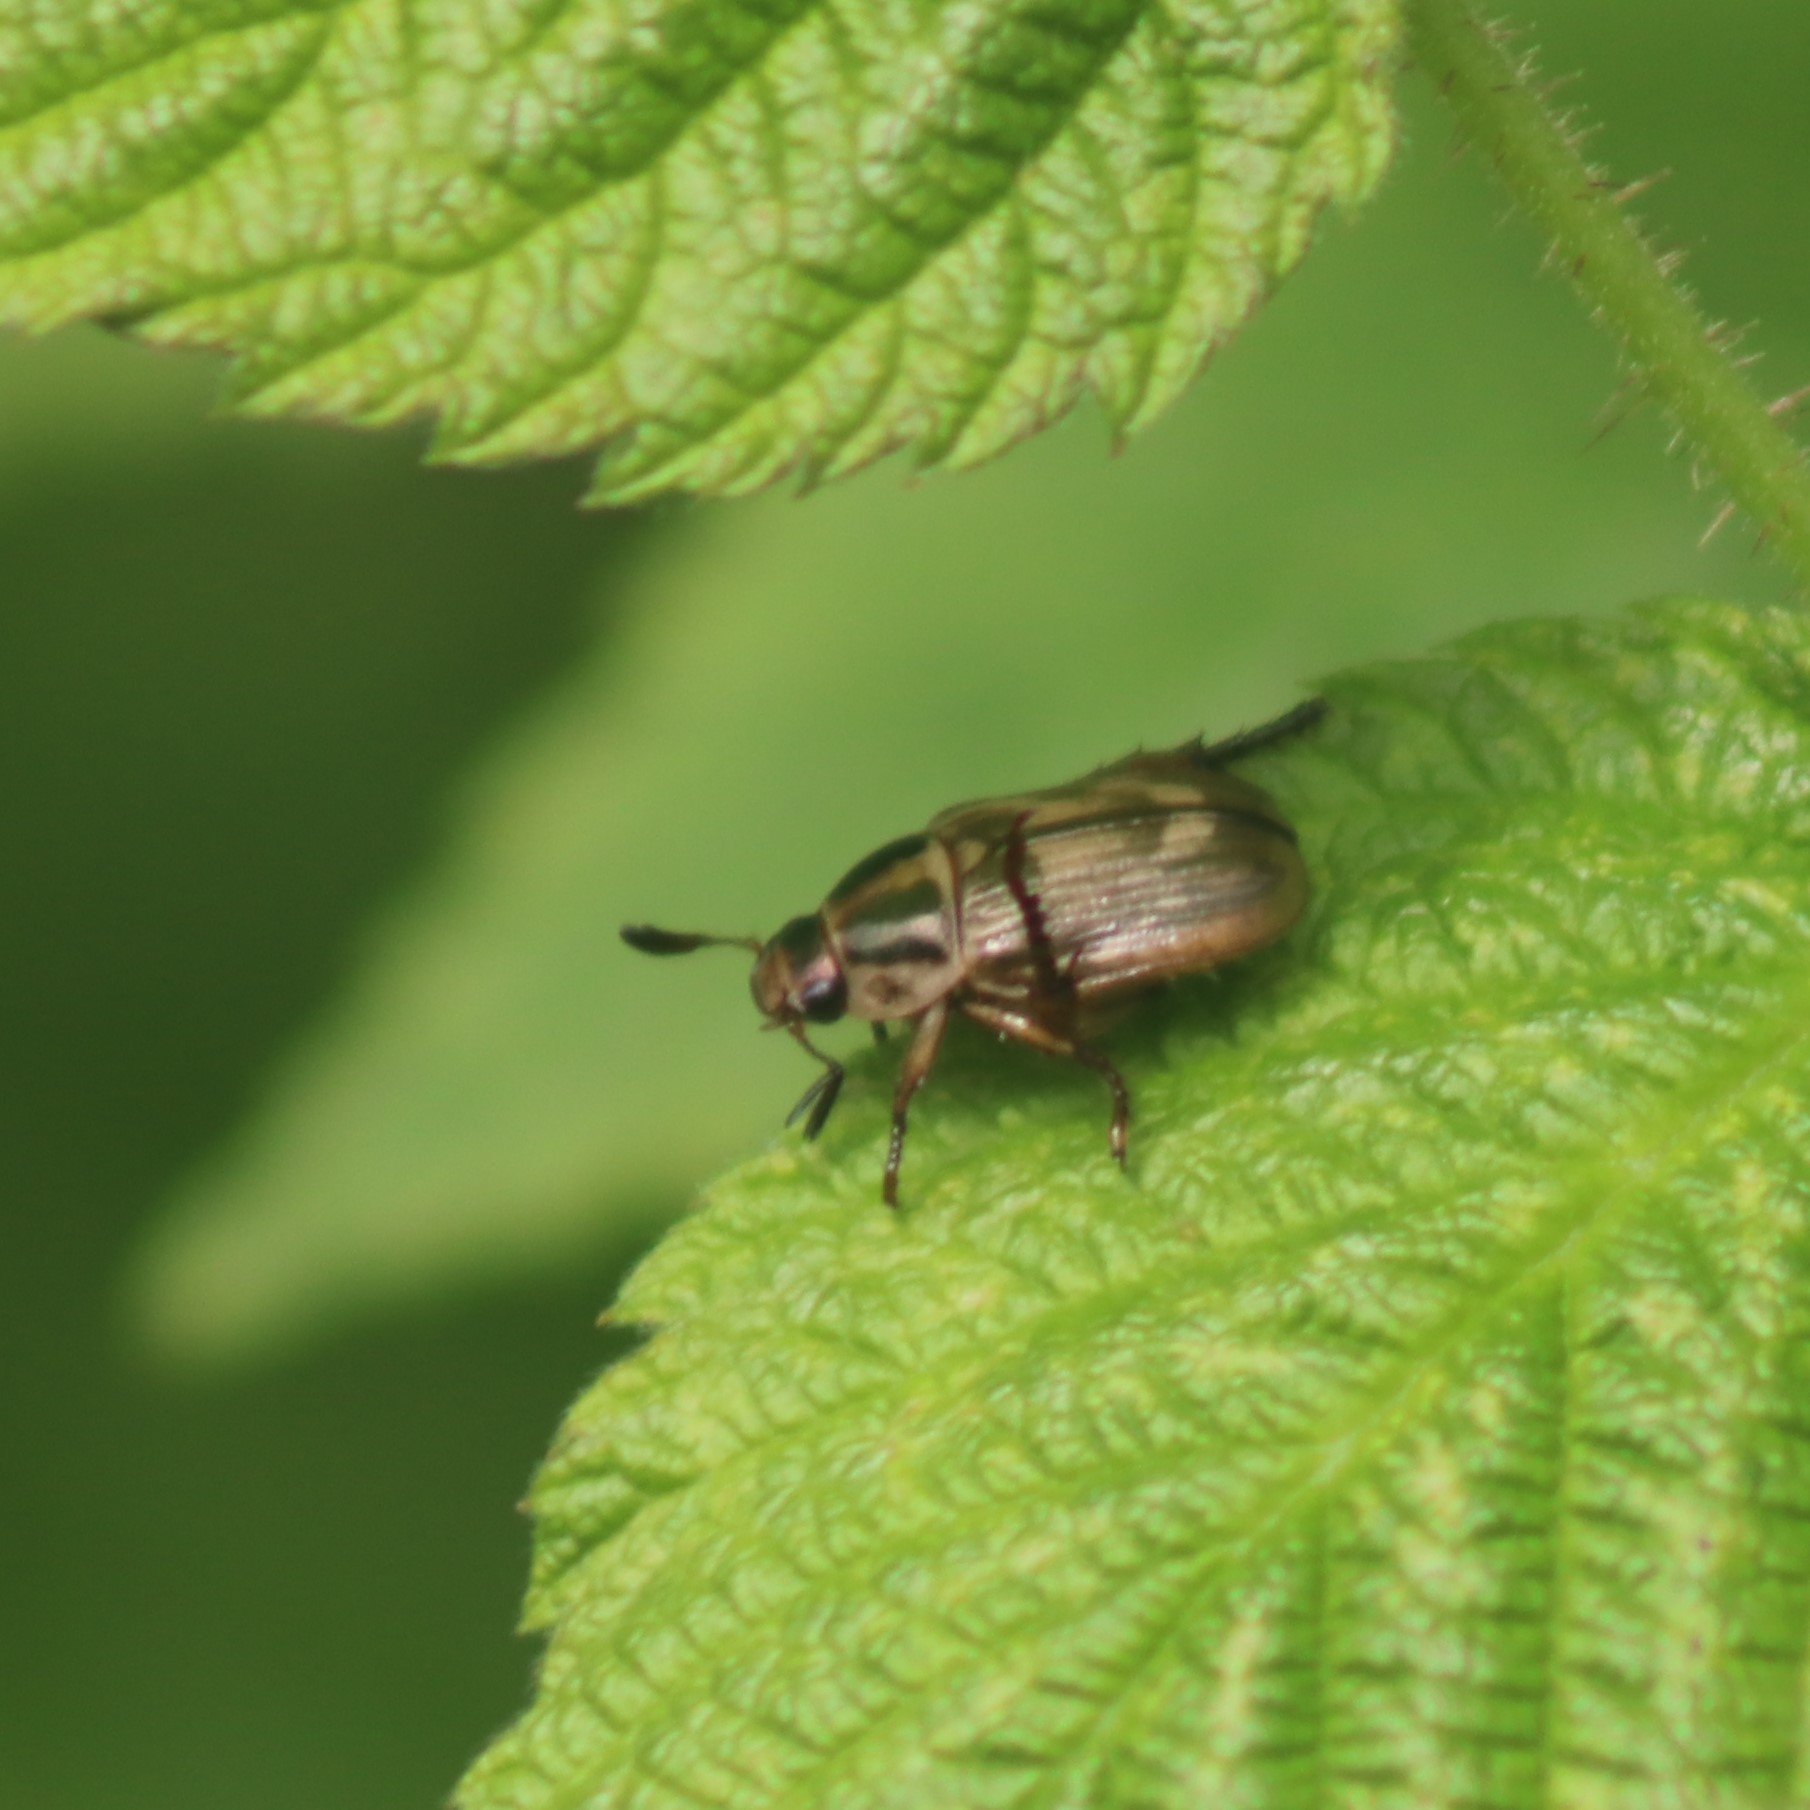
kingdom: Animalia
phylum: Arthropoda
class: Insecta
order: Coleoptera
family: Scarabaeidae
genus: Exomala
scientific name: Exomala orientalis
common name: Oriental beetle
